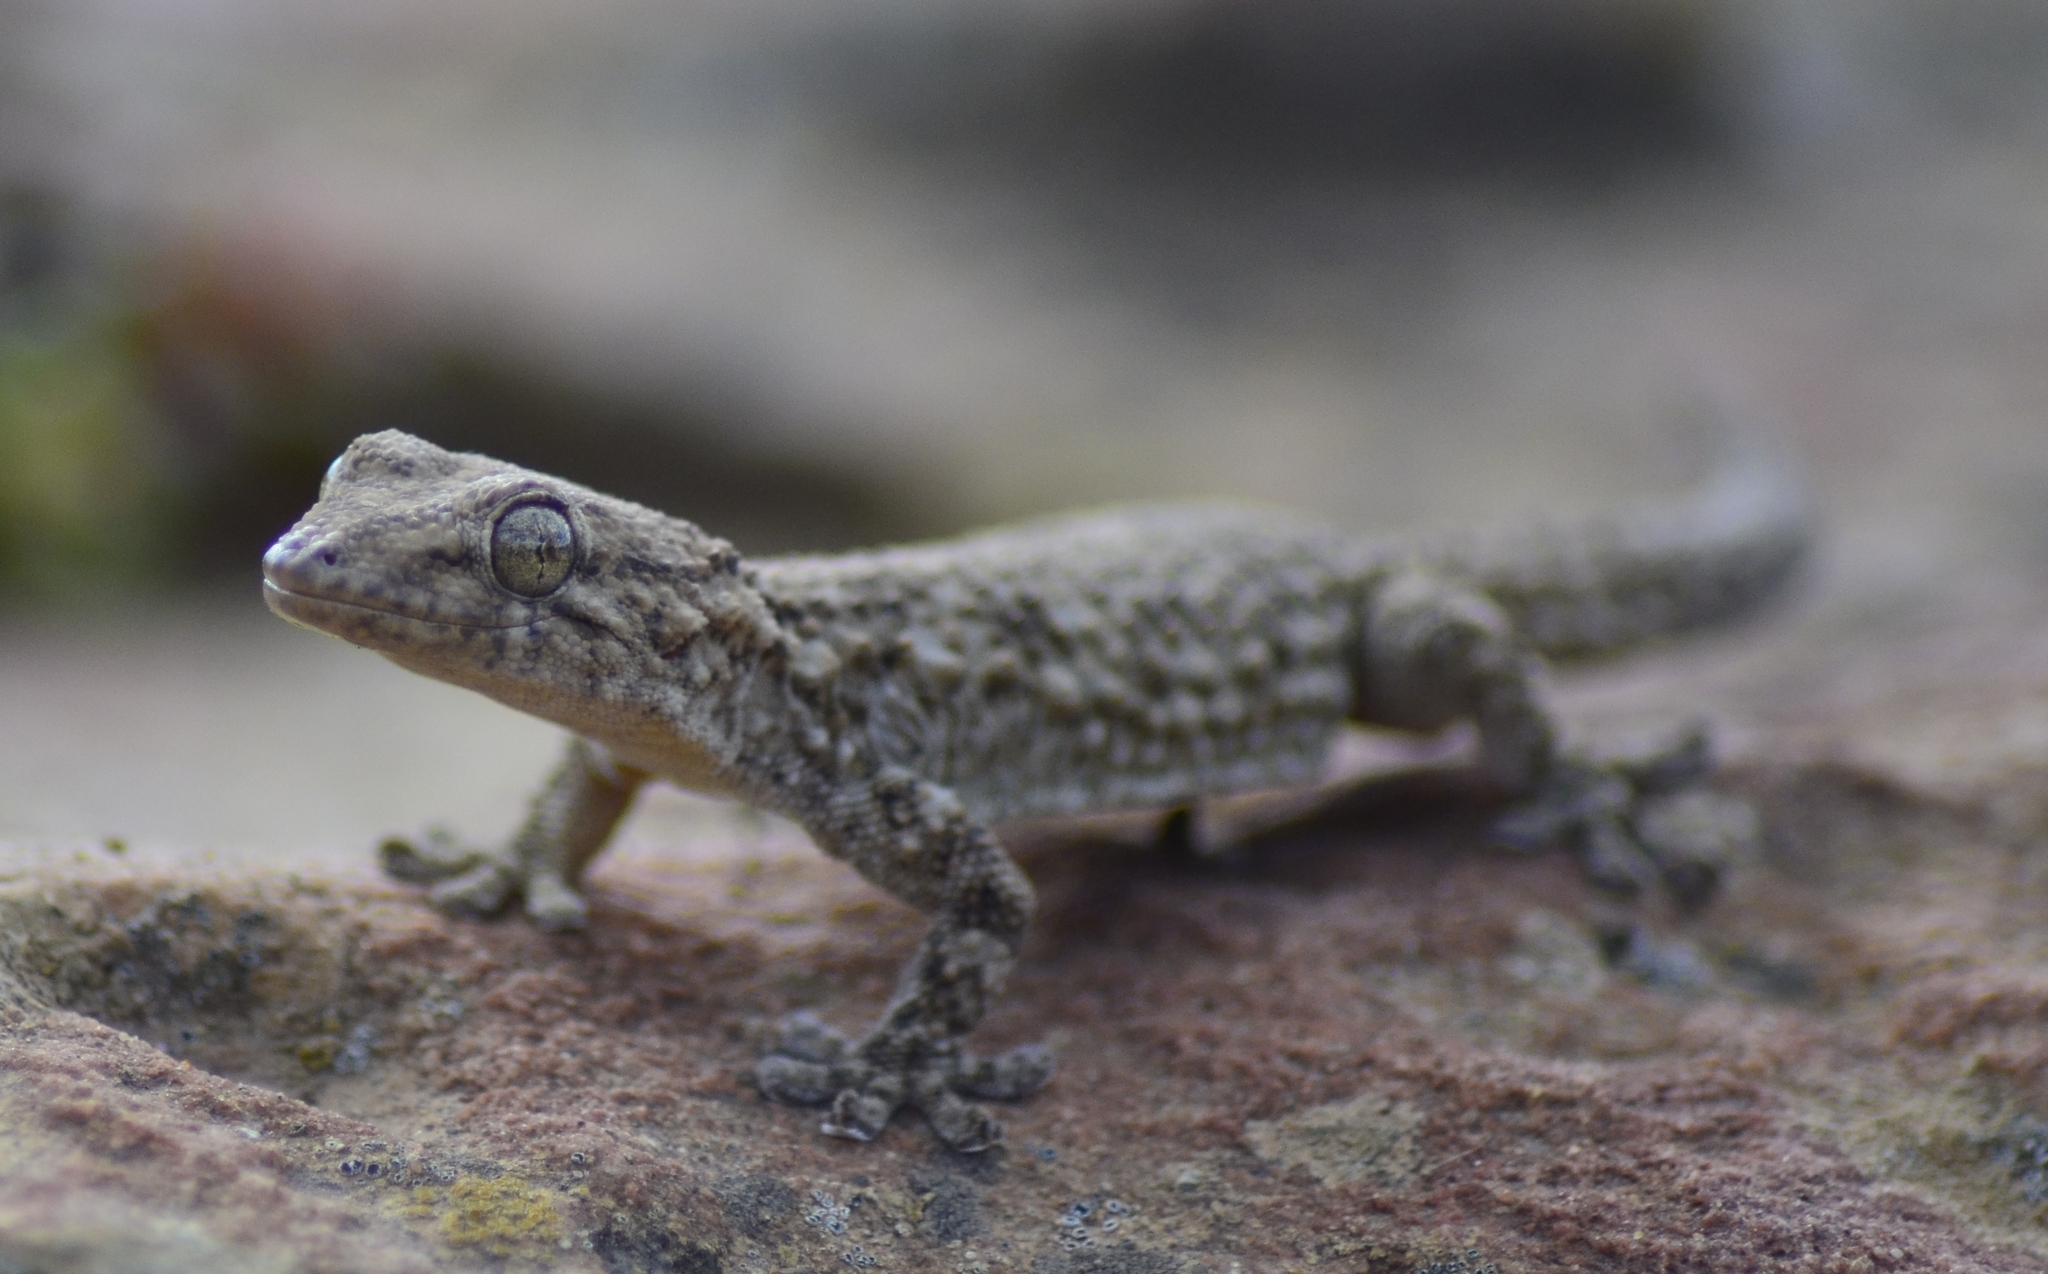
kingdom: Animalia
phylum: Chordata
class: Squamata
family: Phyllodactylidae
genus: Tarentola
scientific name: Tarentola mauritanica
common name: Moorish gecko
